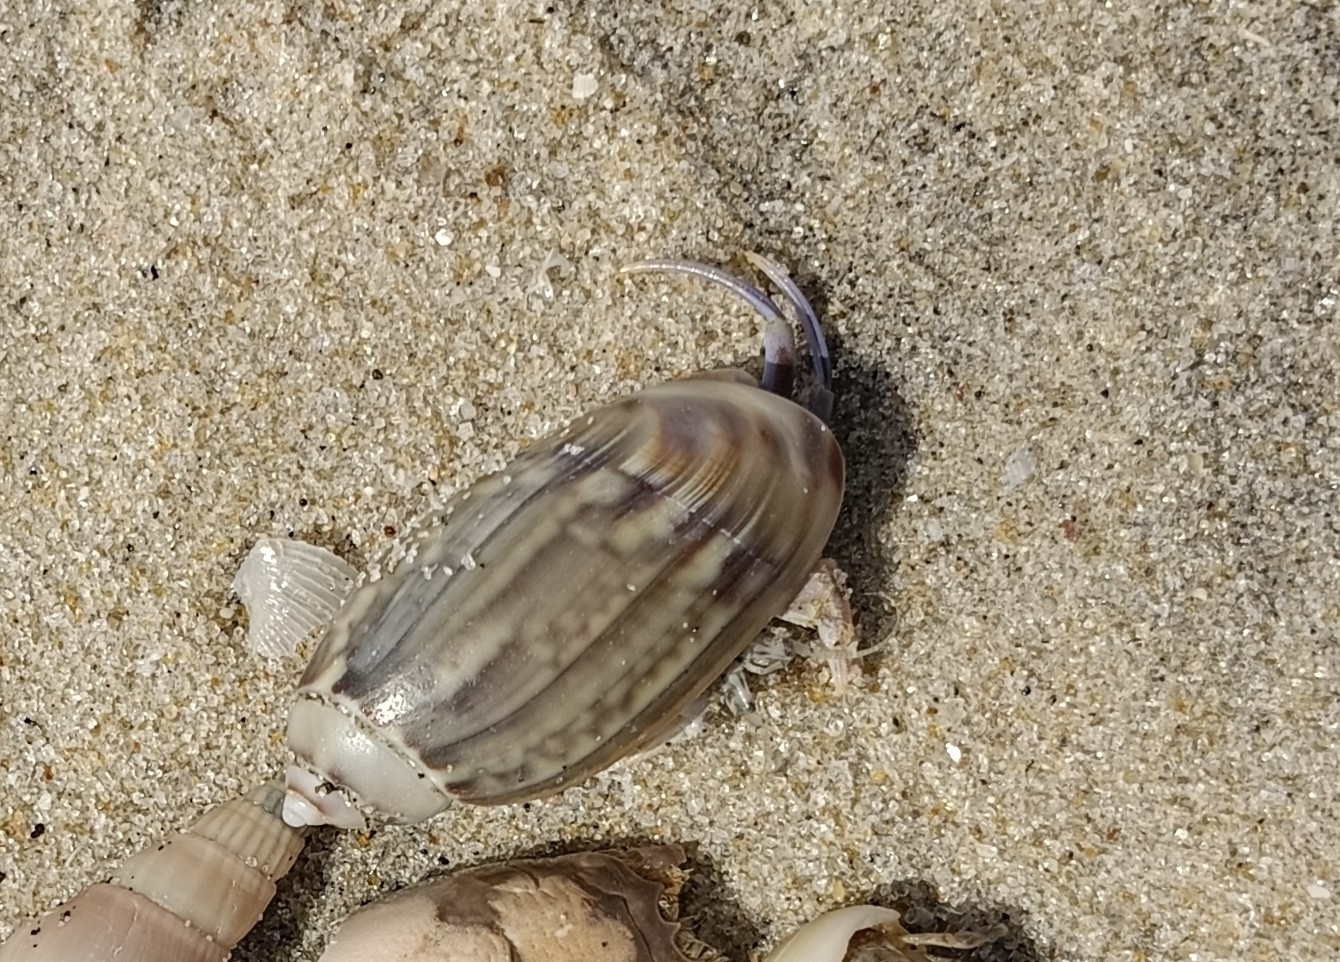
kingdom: Animalia
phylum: Mollusca
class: Gastropoda
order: Neogastropoda
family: Olividae
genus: Agaronia
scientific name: Agaronia gibbosa
